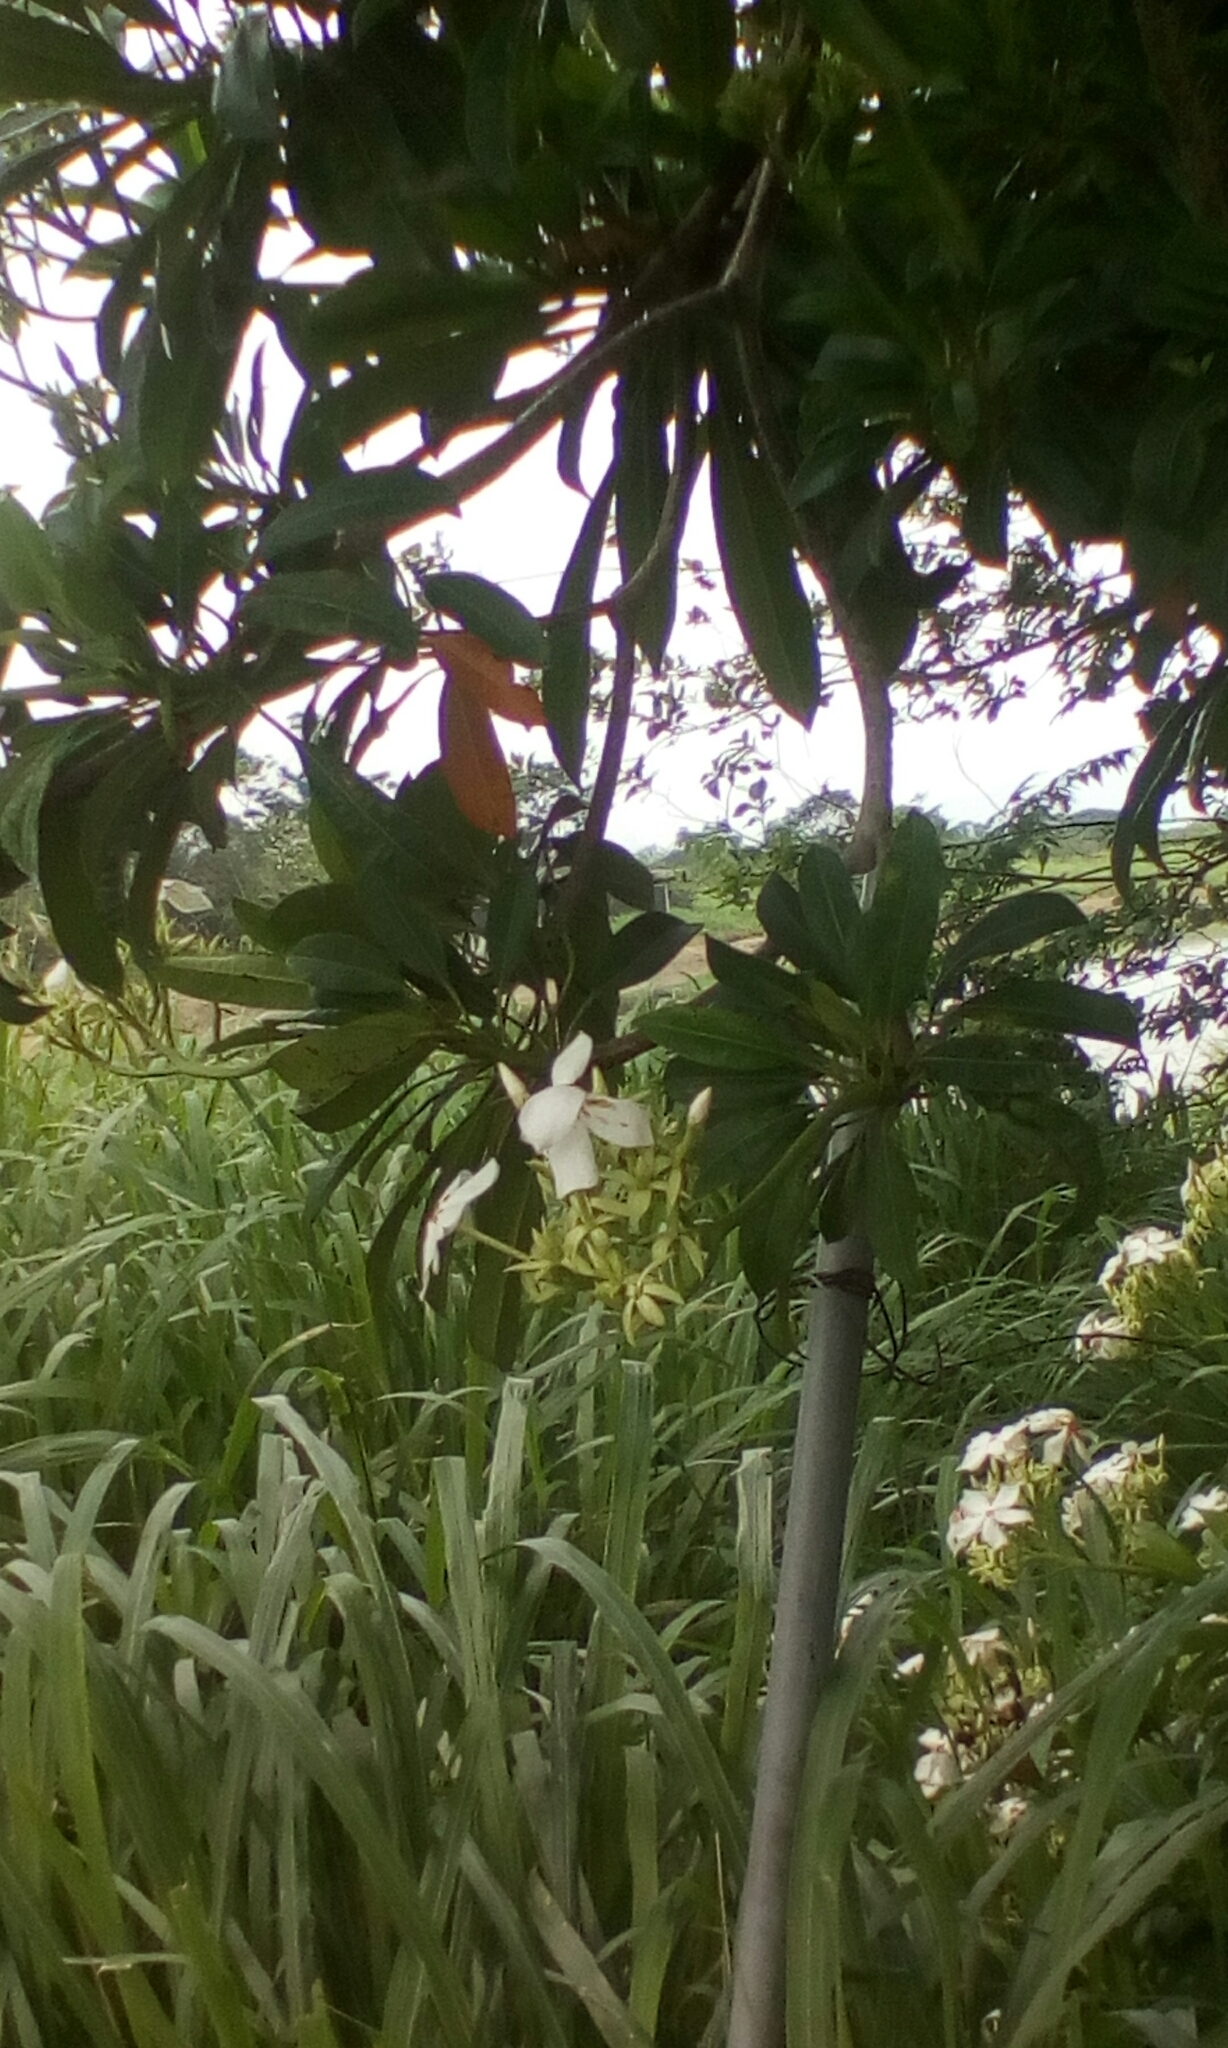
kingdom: Plantae
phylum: Tracheophyta
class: Magnoliopsida
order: Gentianales
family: Apocynaceae
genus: Cerbera
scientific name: Cerbera manghas
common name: Reva
